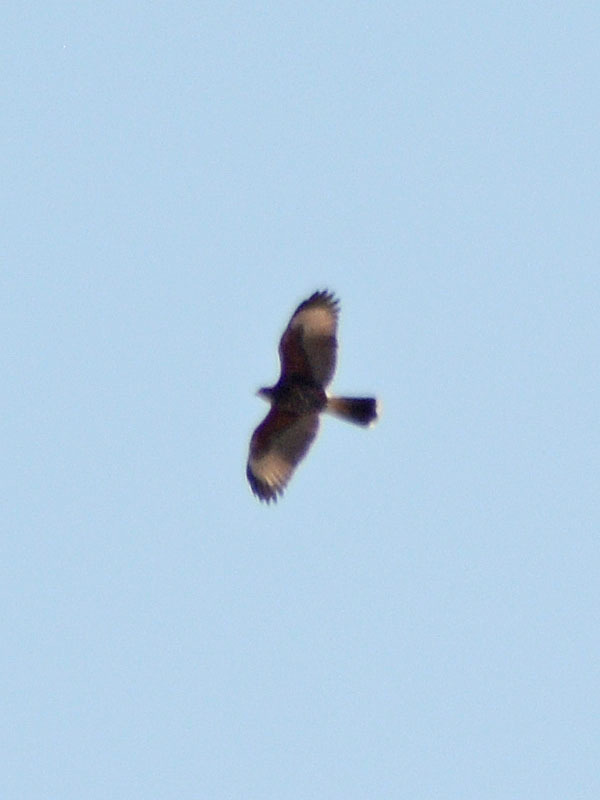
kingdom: Animalia
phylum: Chordata
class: Aves
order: Accipitriformes
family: Accipitridae
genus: Parabuteo
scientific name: Parabuteo unicinctus
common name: Harris's hawk
